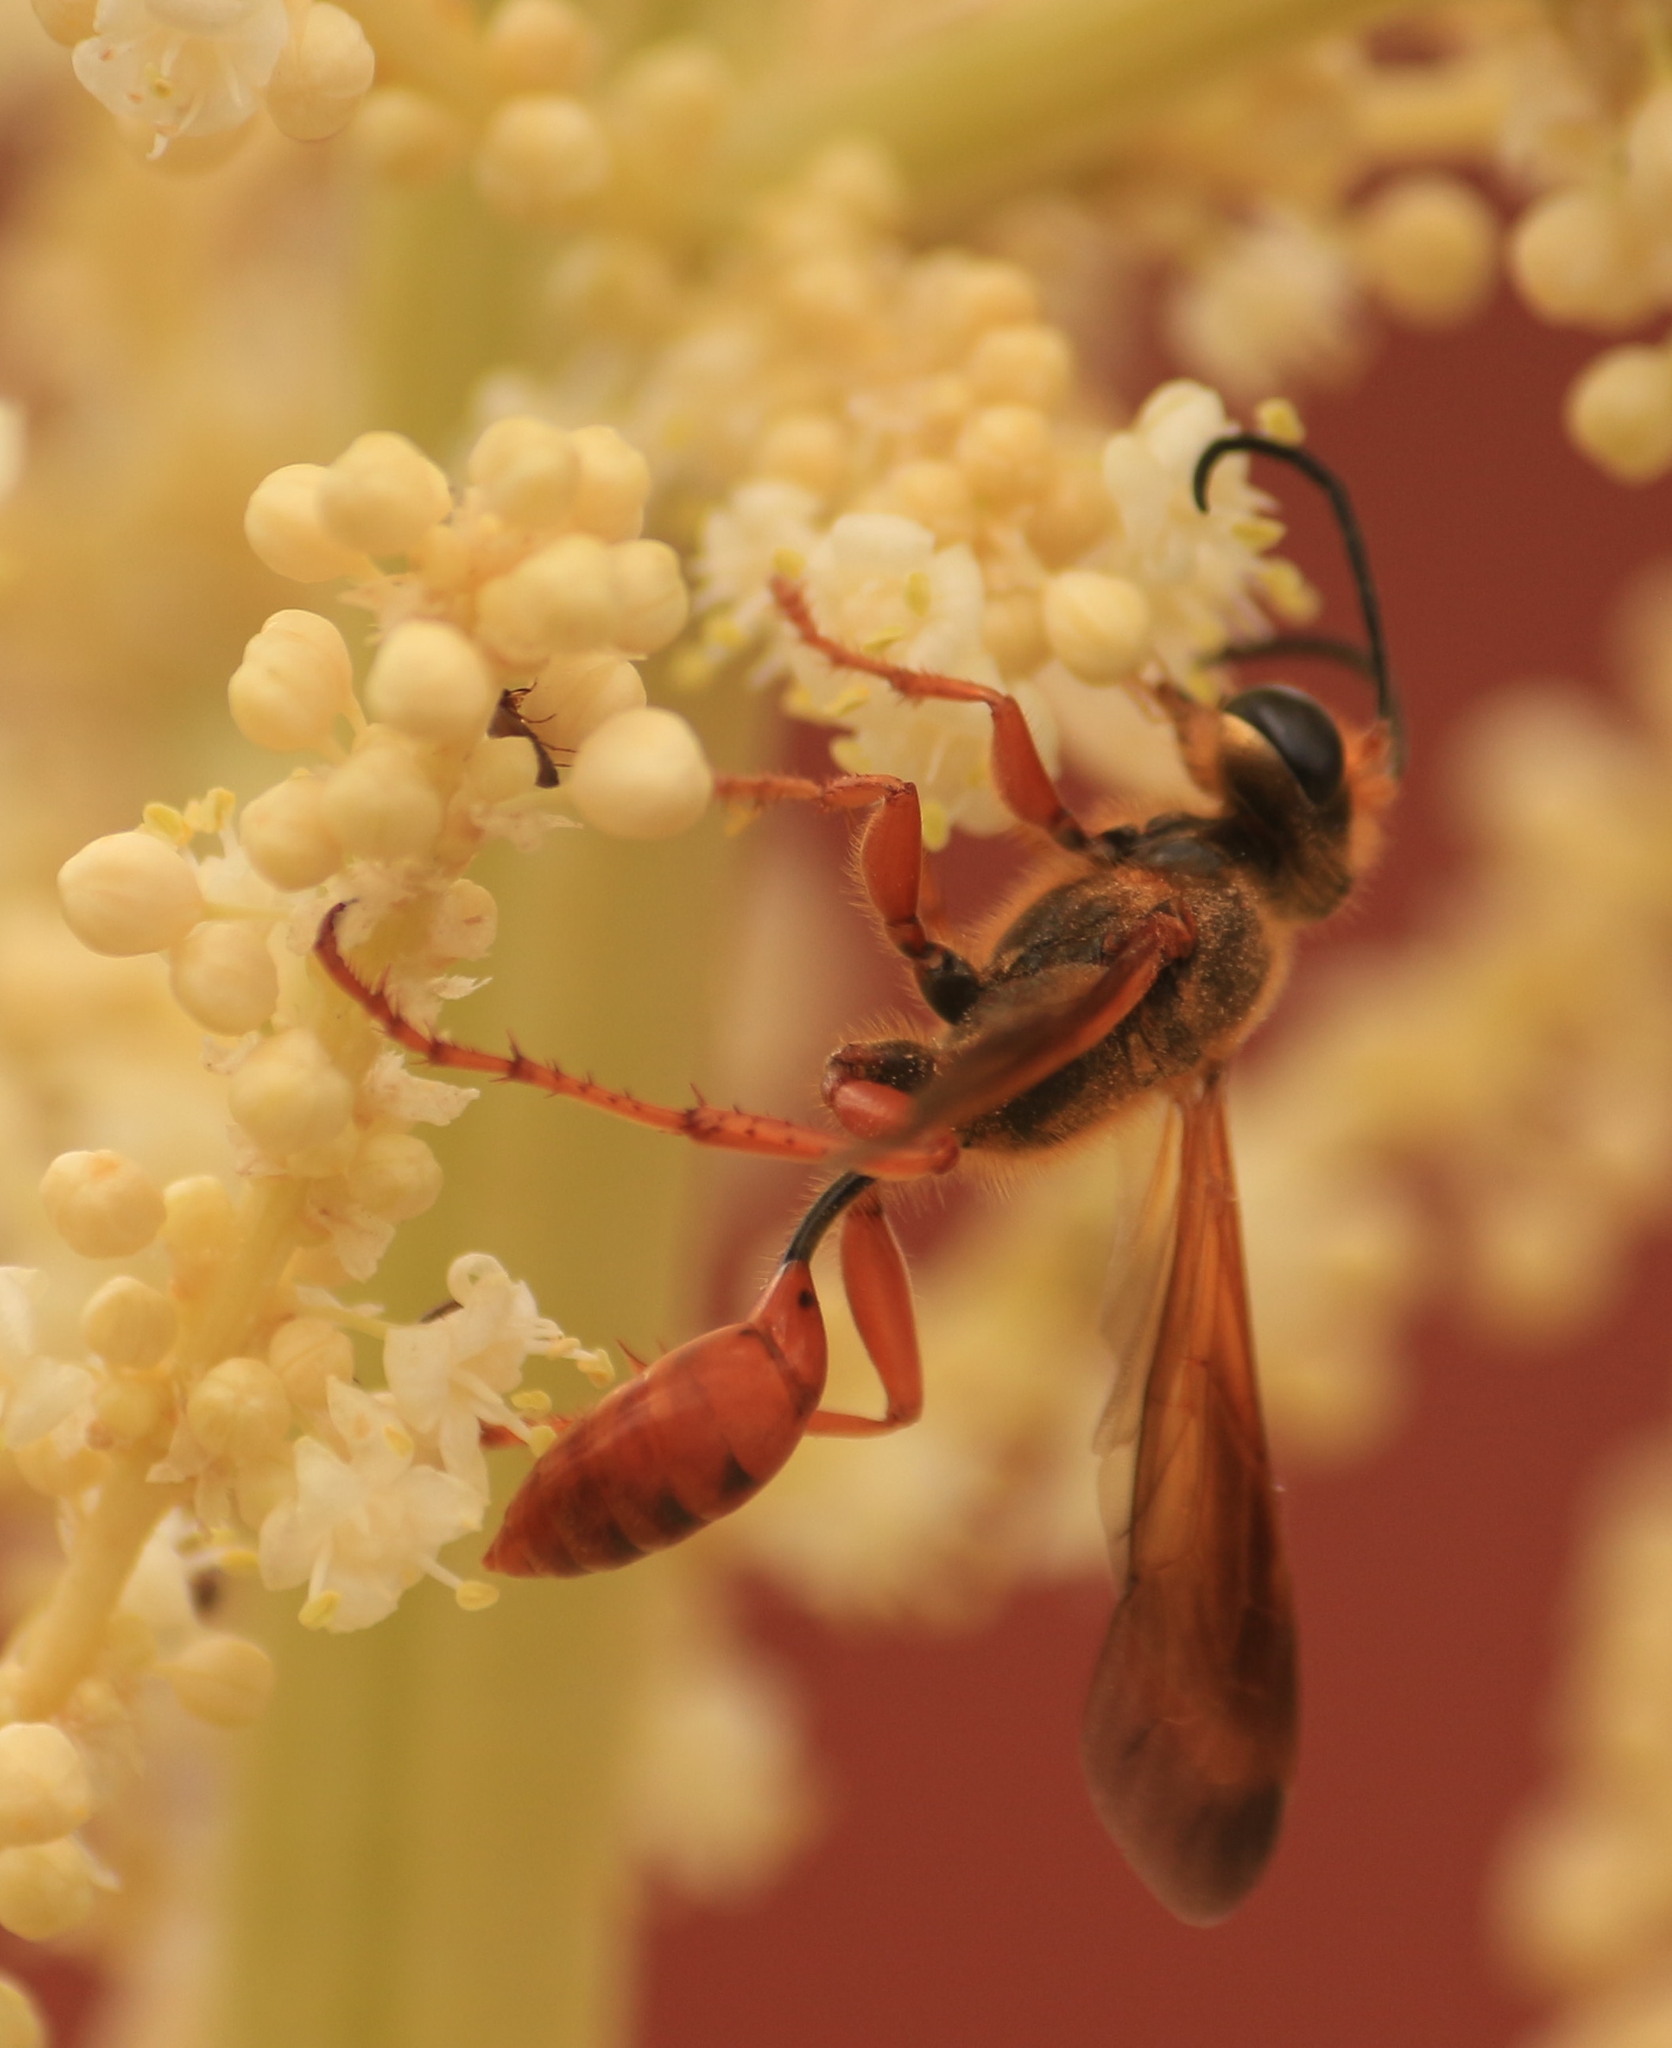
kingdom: Animalia
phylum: Arthropoda
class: Insecta
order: Hymenoptera
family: Sphecidae
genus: Isodontia
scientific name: Isodontia elegans
